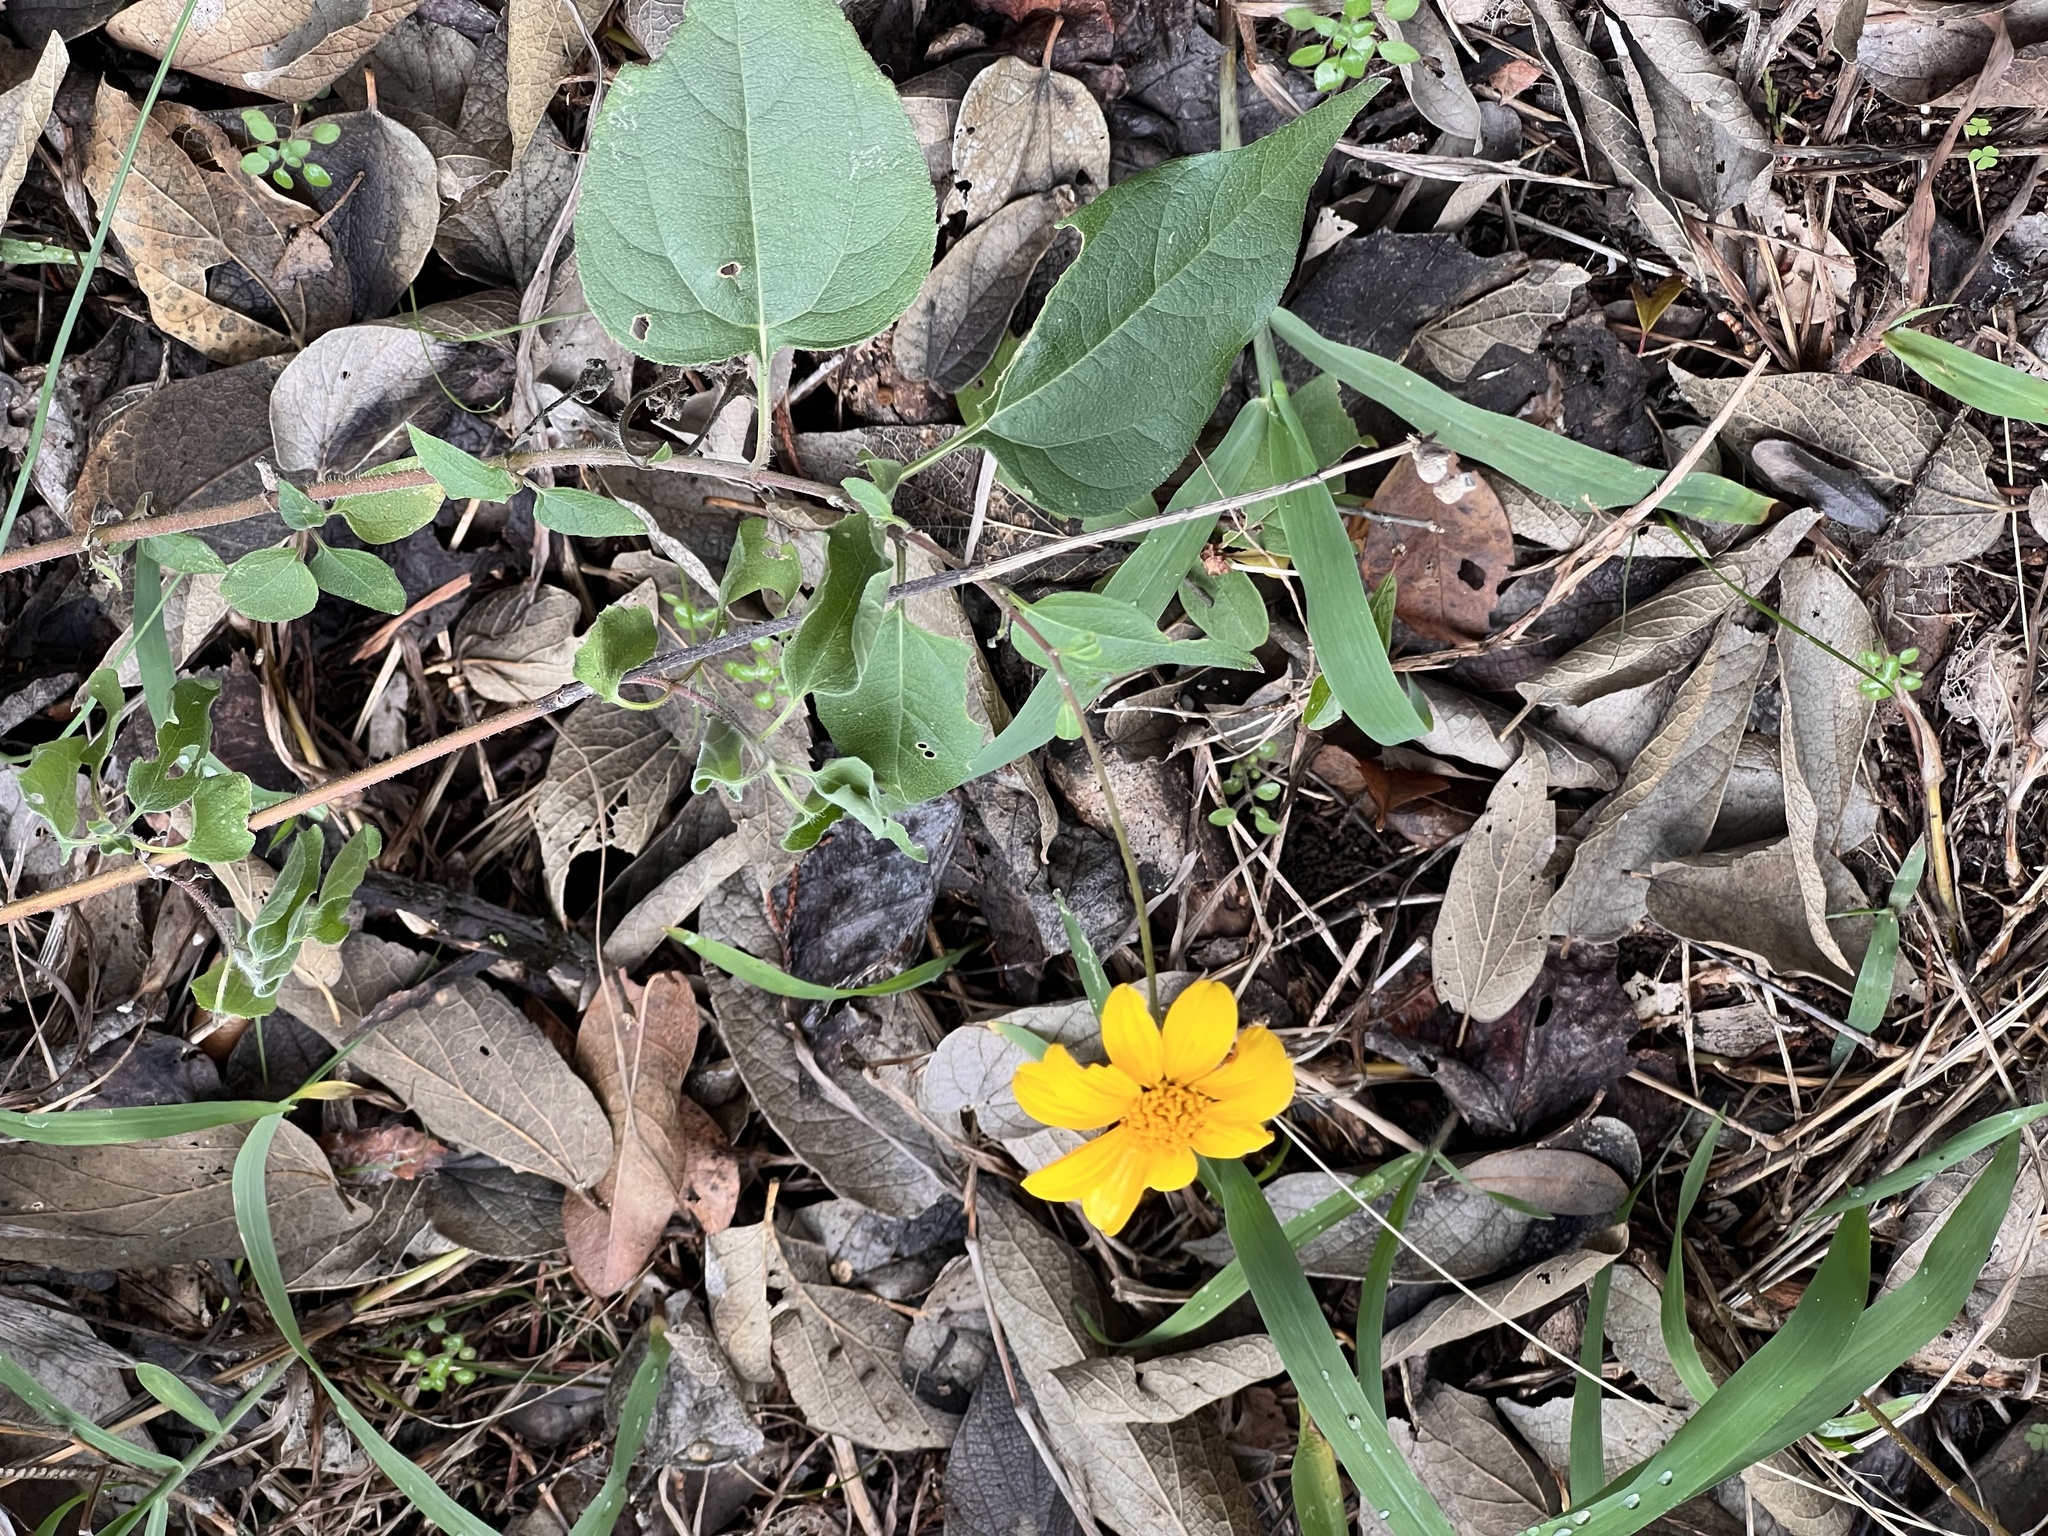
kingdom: Plantae
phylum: Tracheophyta
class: Magnoliopsida
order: Asterales
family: Asteraceae
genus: Viguiera
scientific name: Viguiera dentata
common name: Toothleaf
